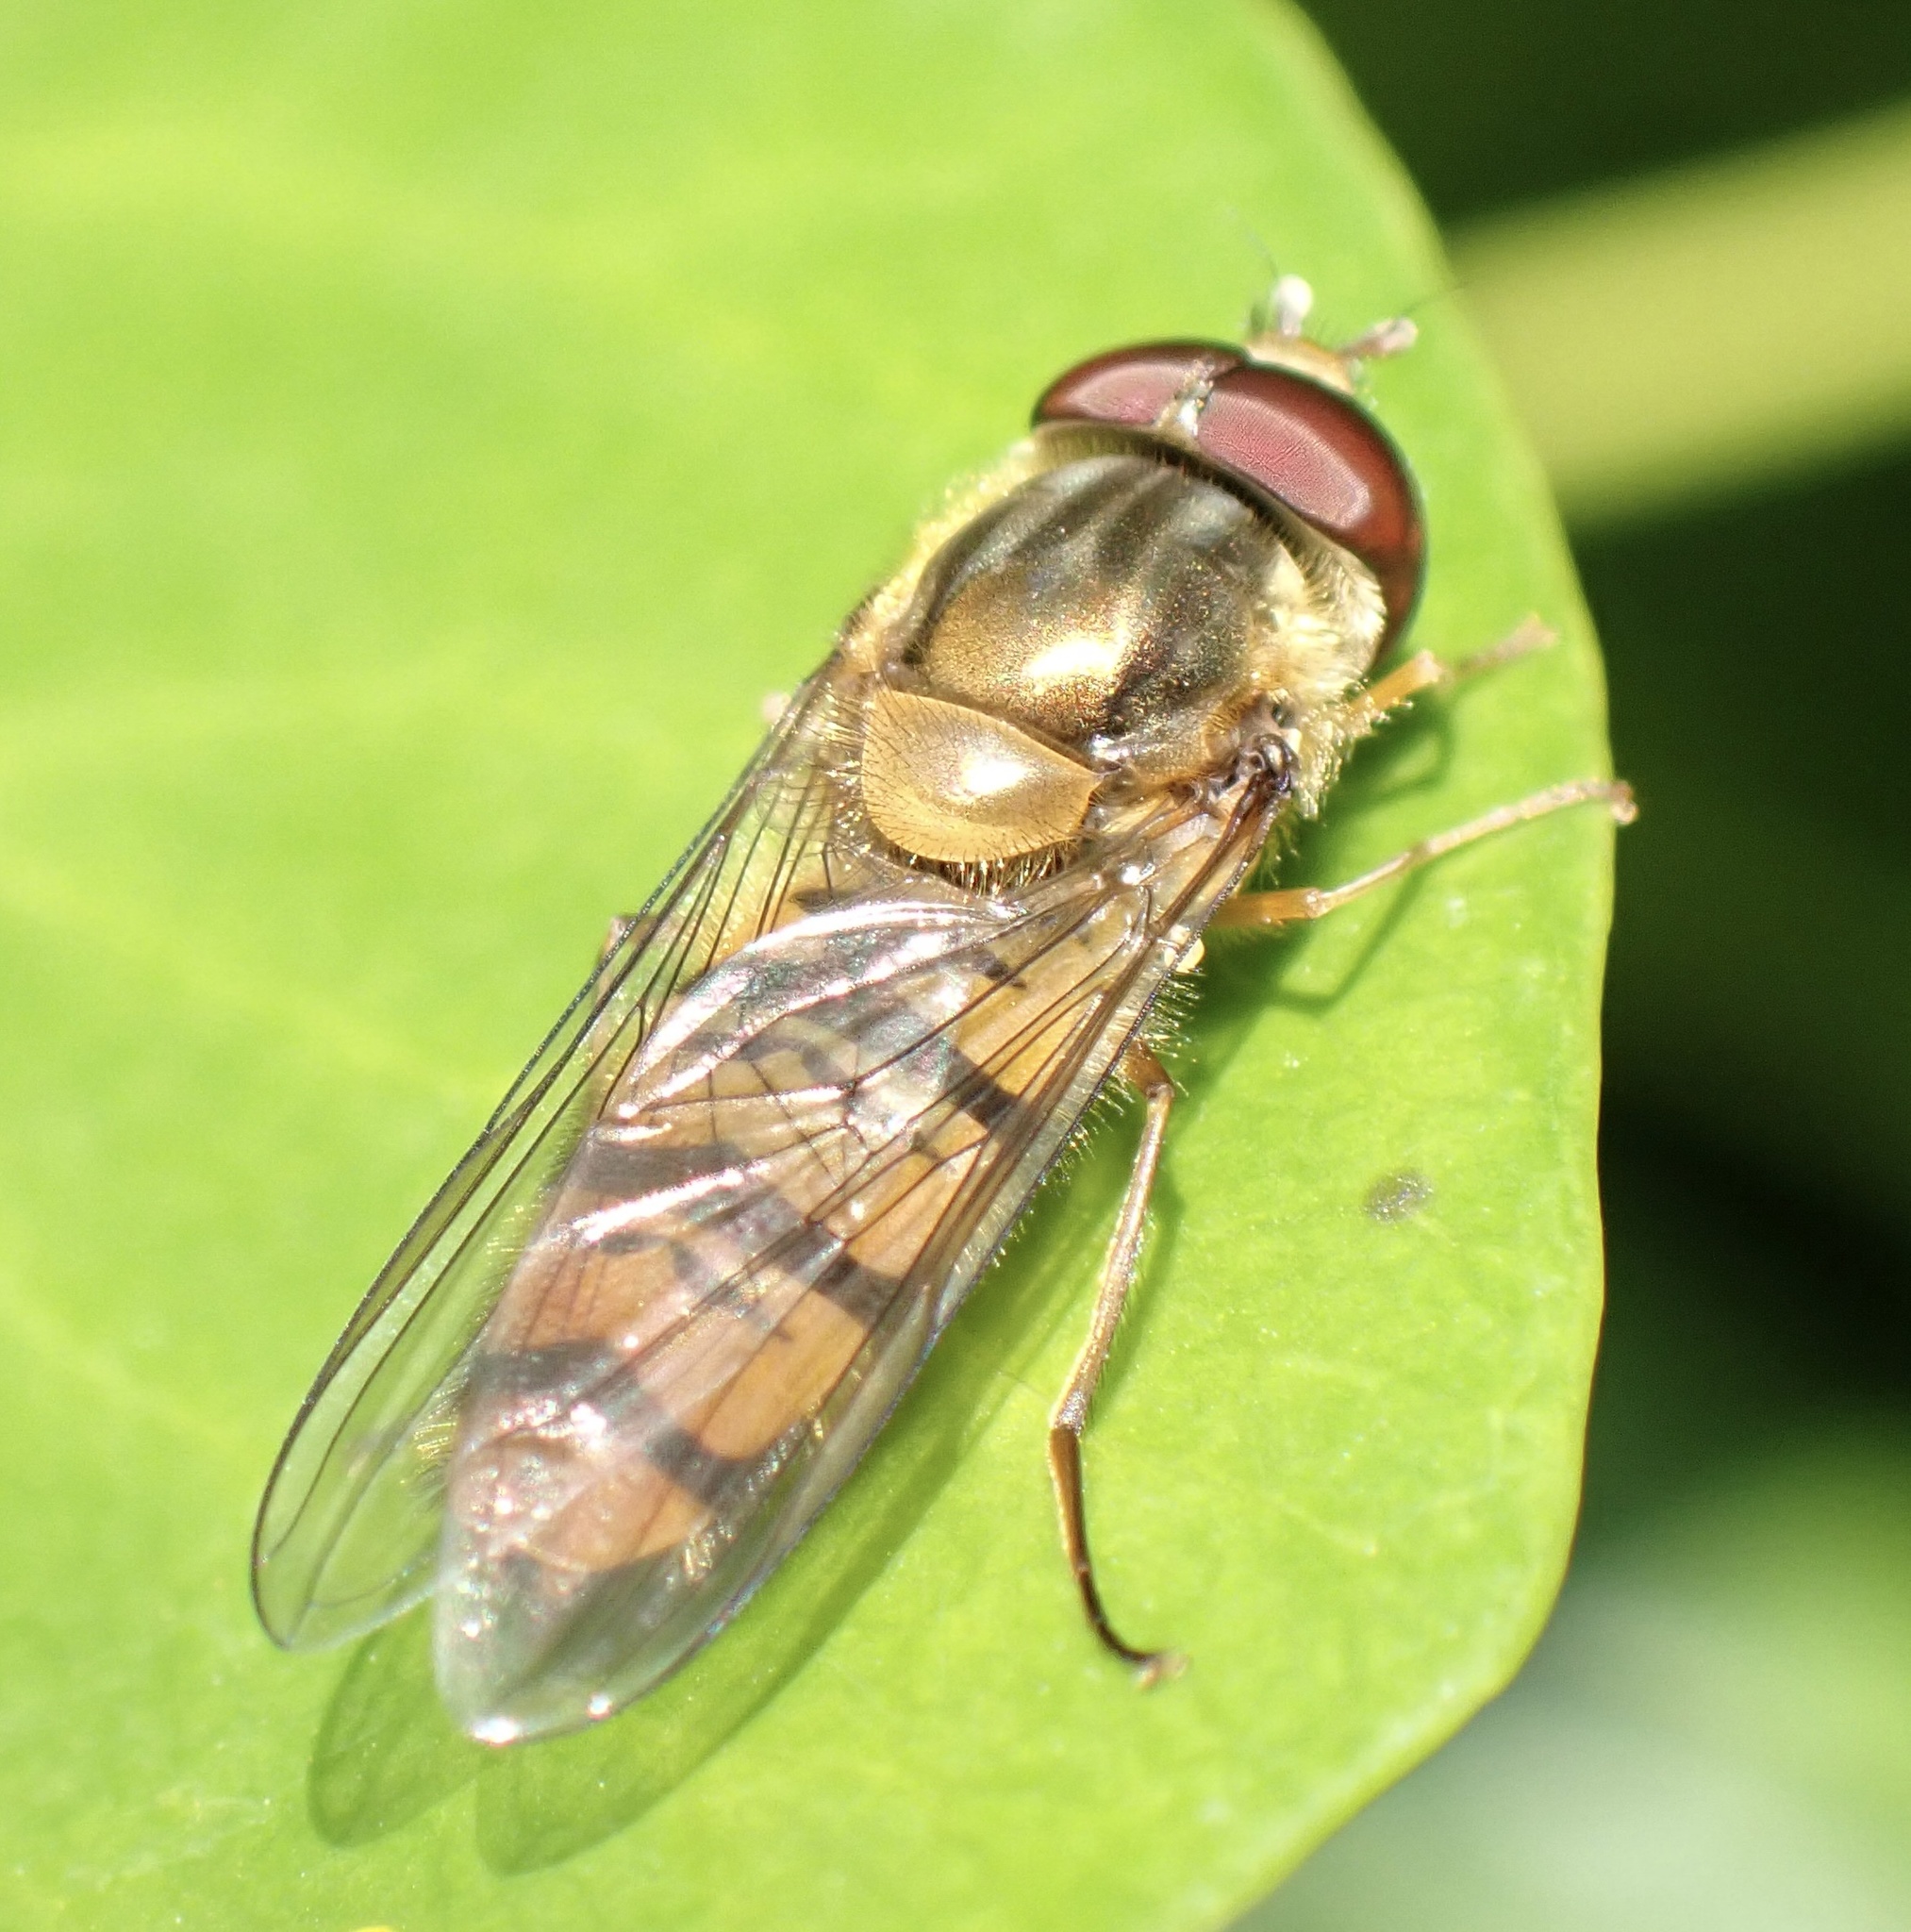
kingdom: Animalia
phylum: Arthropoda
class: Insecta
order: Diptera
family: Syrphidae
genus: Episyrphus
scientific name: Episyrphus balteatus
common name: Marmalade hoverfly
